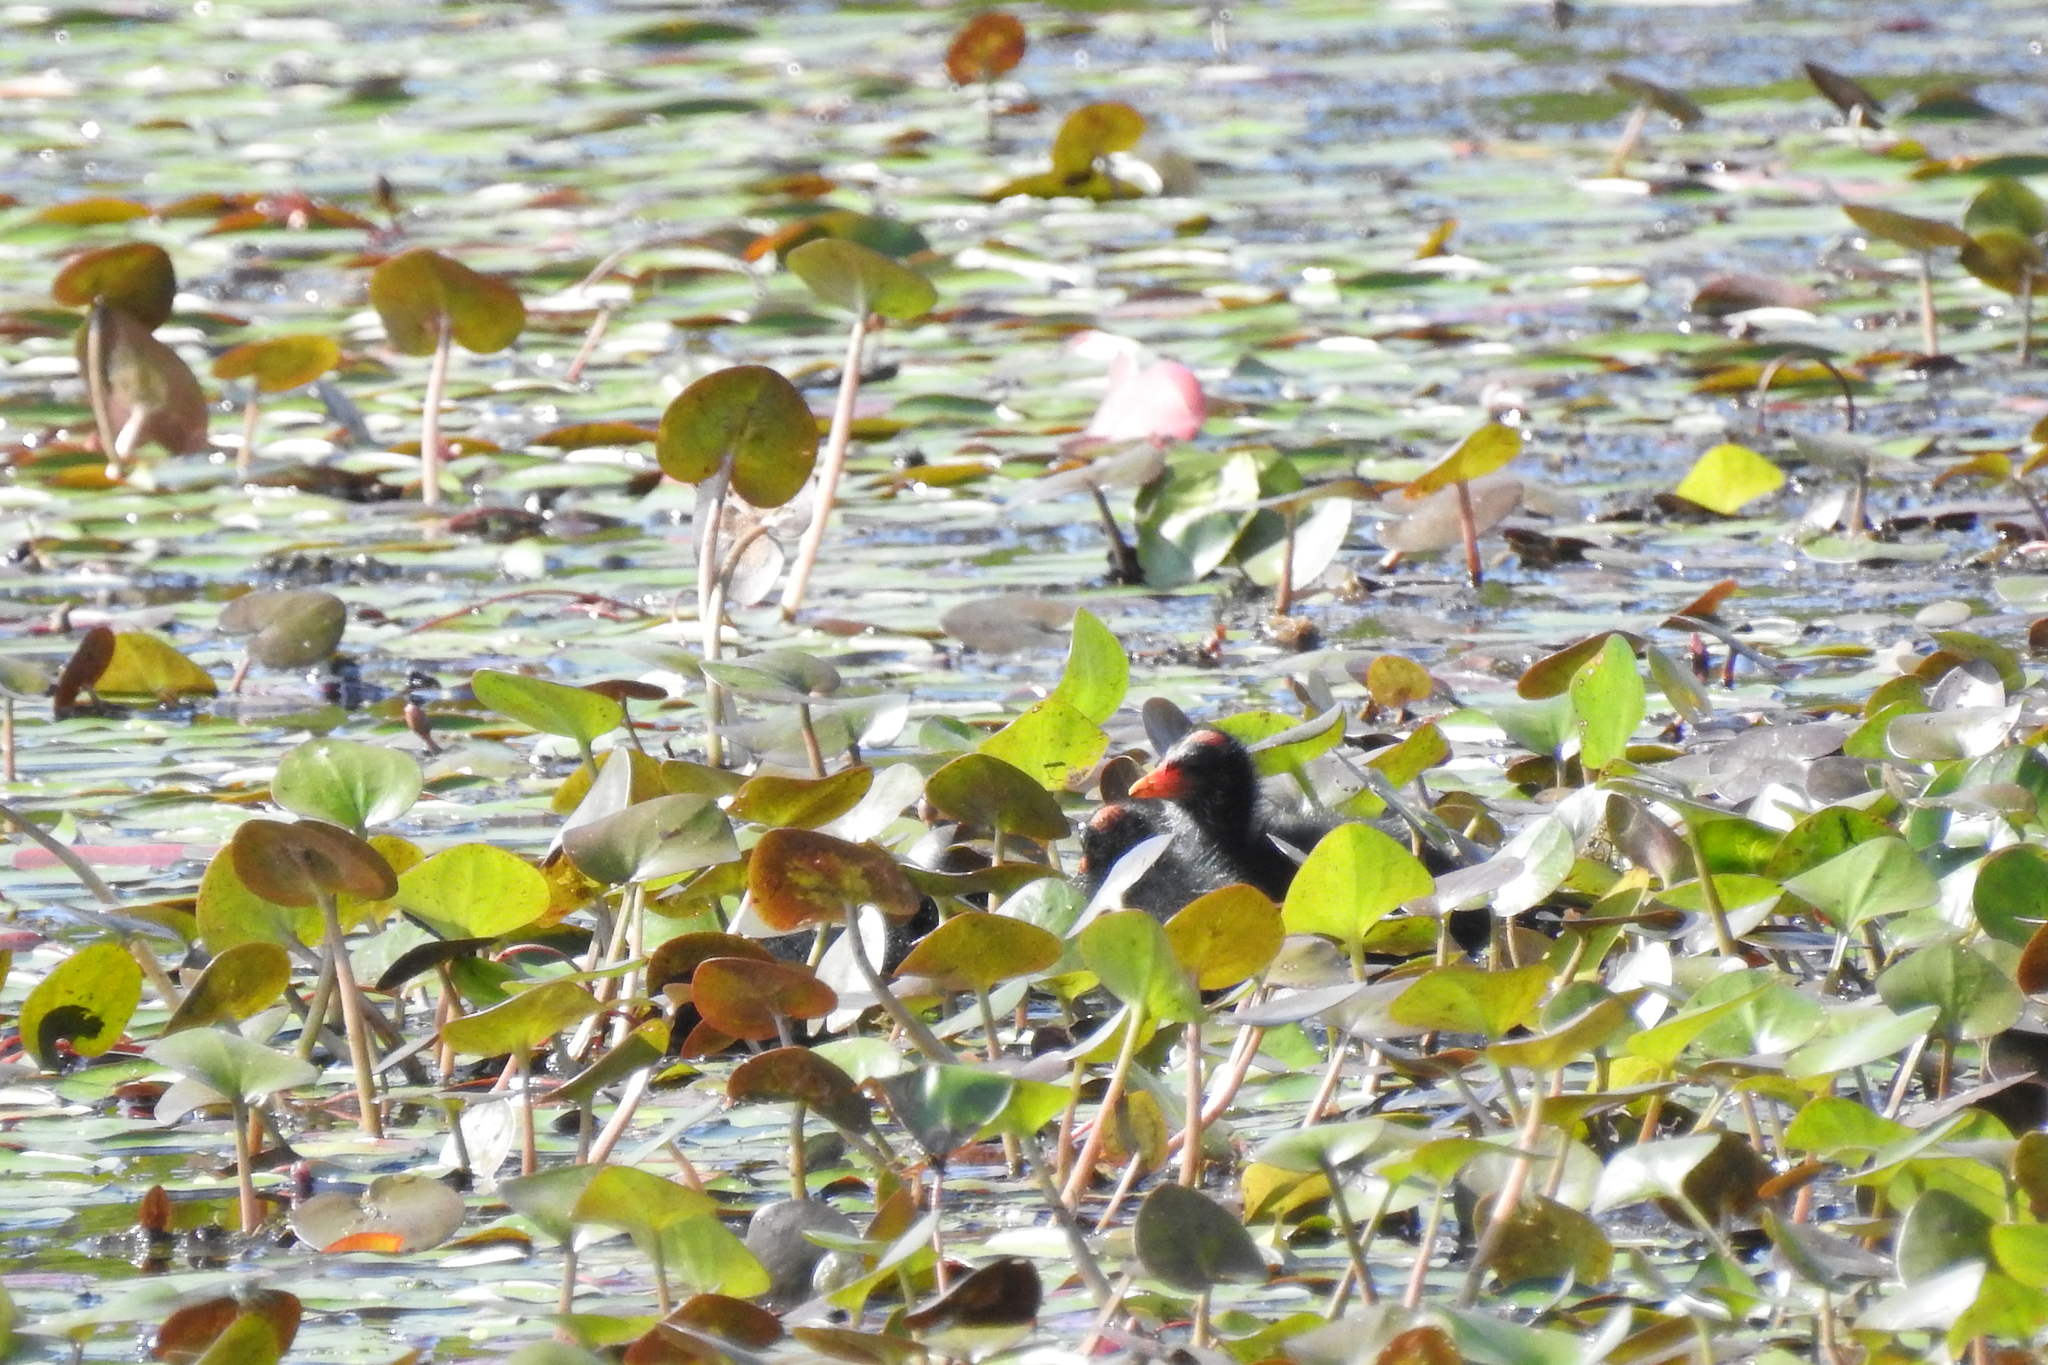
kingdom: Animalia
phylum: Chordata
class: Aves
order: Gruiformes
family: Rallidae
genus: Gallinula
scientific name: Gallinula chloropus
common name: Common moorhen
